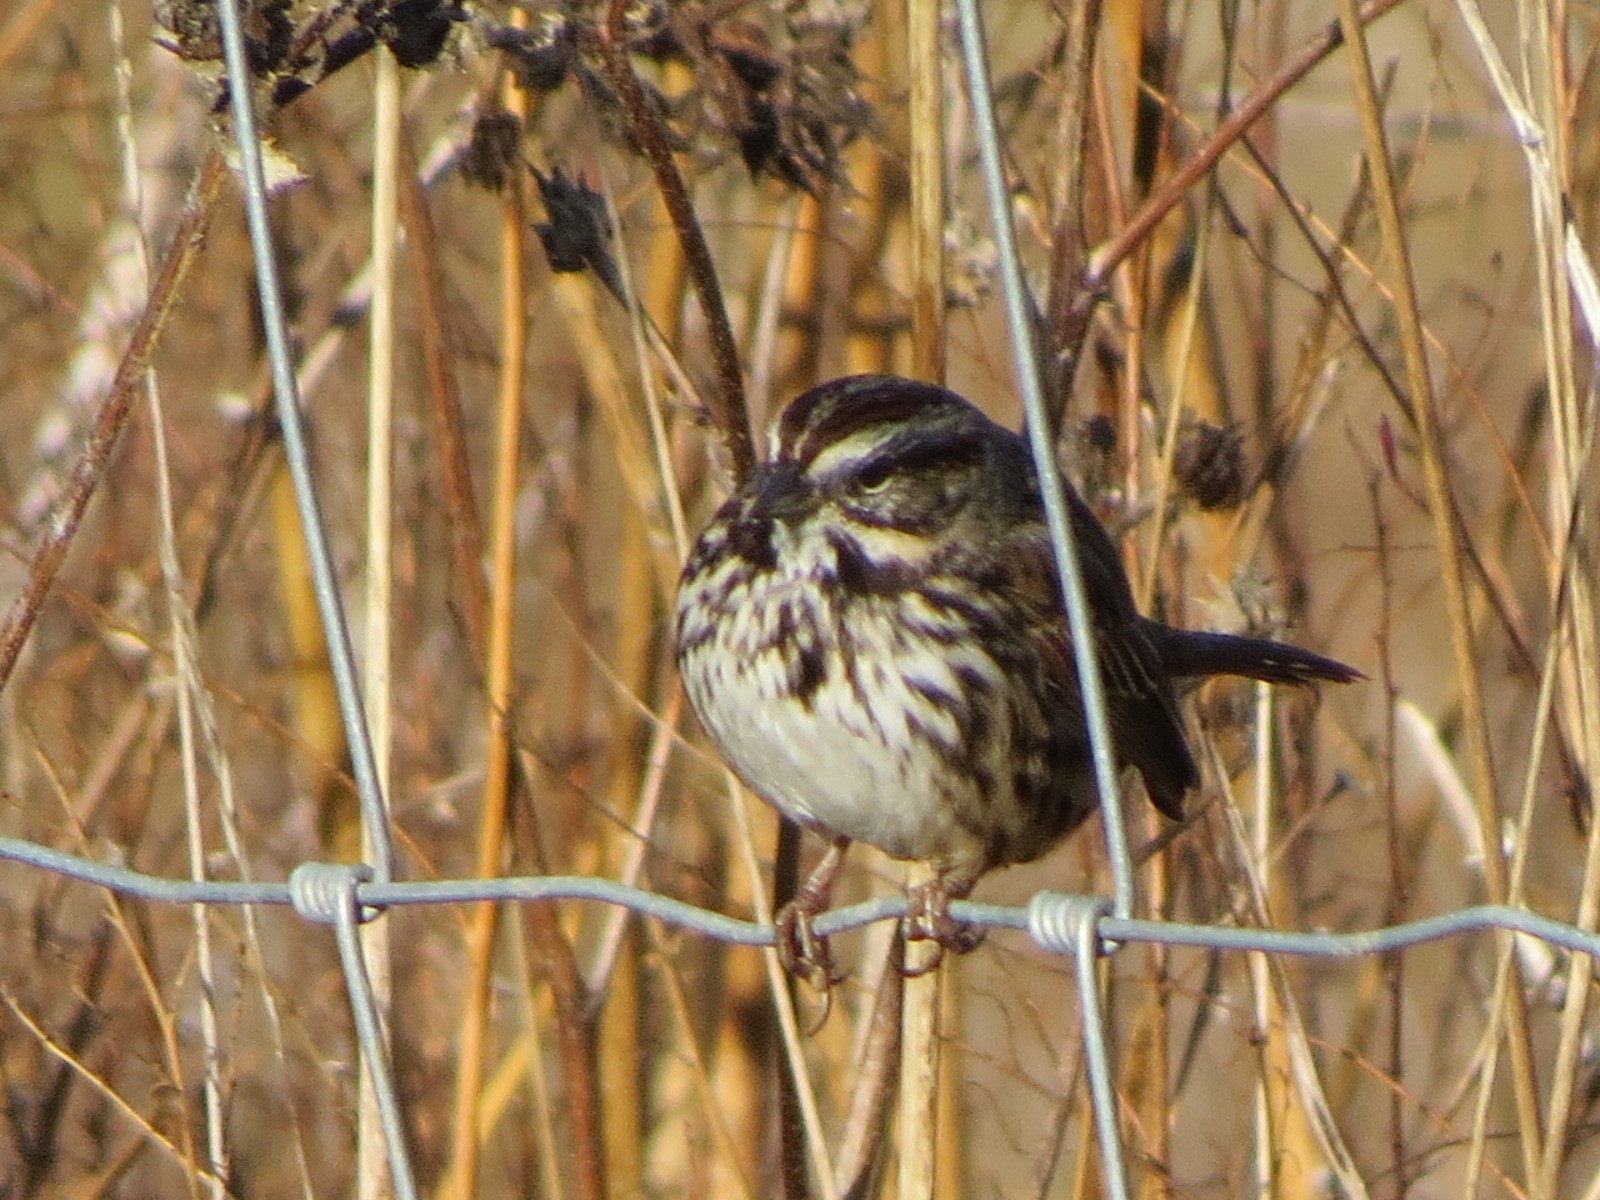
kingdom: Animalia
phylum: Chordata
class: Aves
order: Passeriformes
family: Passerellidae
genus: Melospiza
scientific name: Melospiza melodia
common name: Song sparrow
